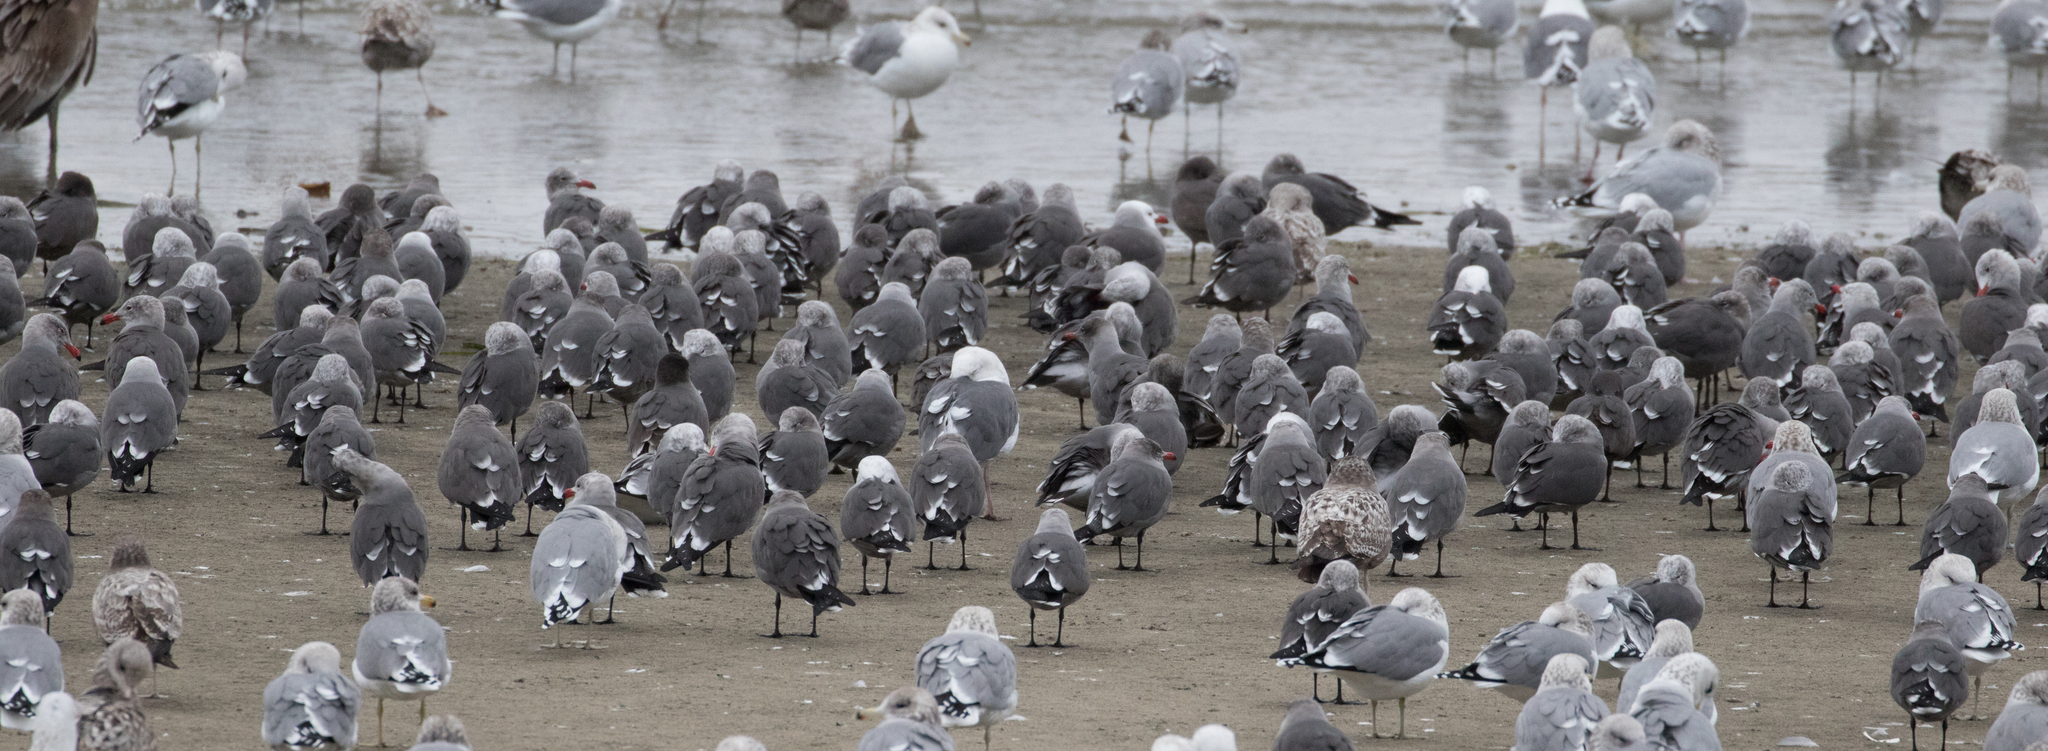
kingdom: Animalia
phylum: Chordata
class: Aves
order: Charadriiformes
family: Laridae
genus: Larus
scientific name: Larus heermanni
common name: Heermann's gull
